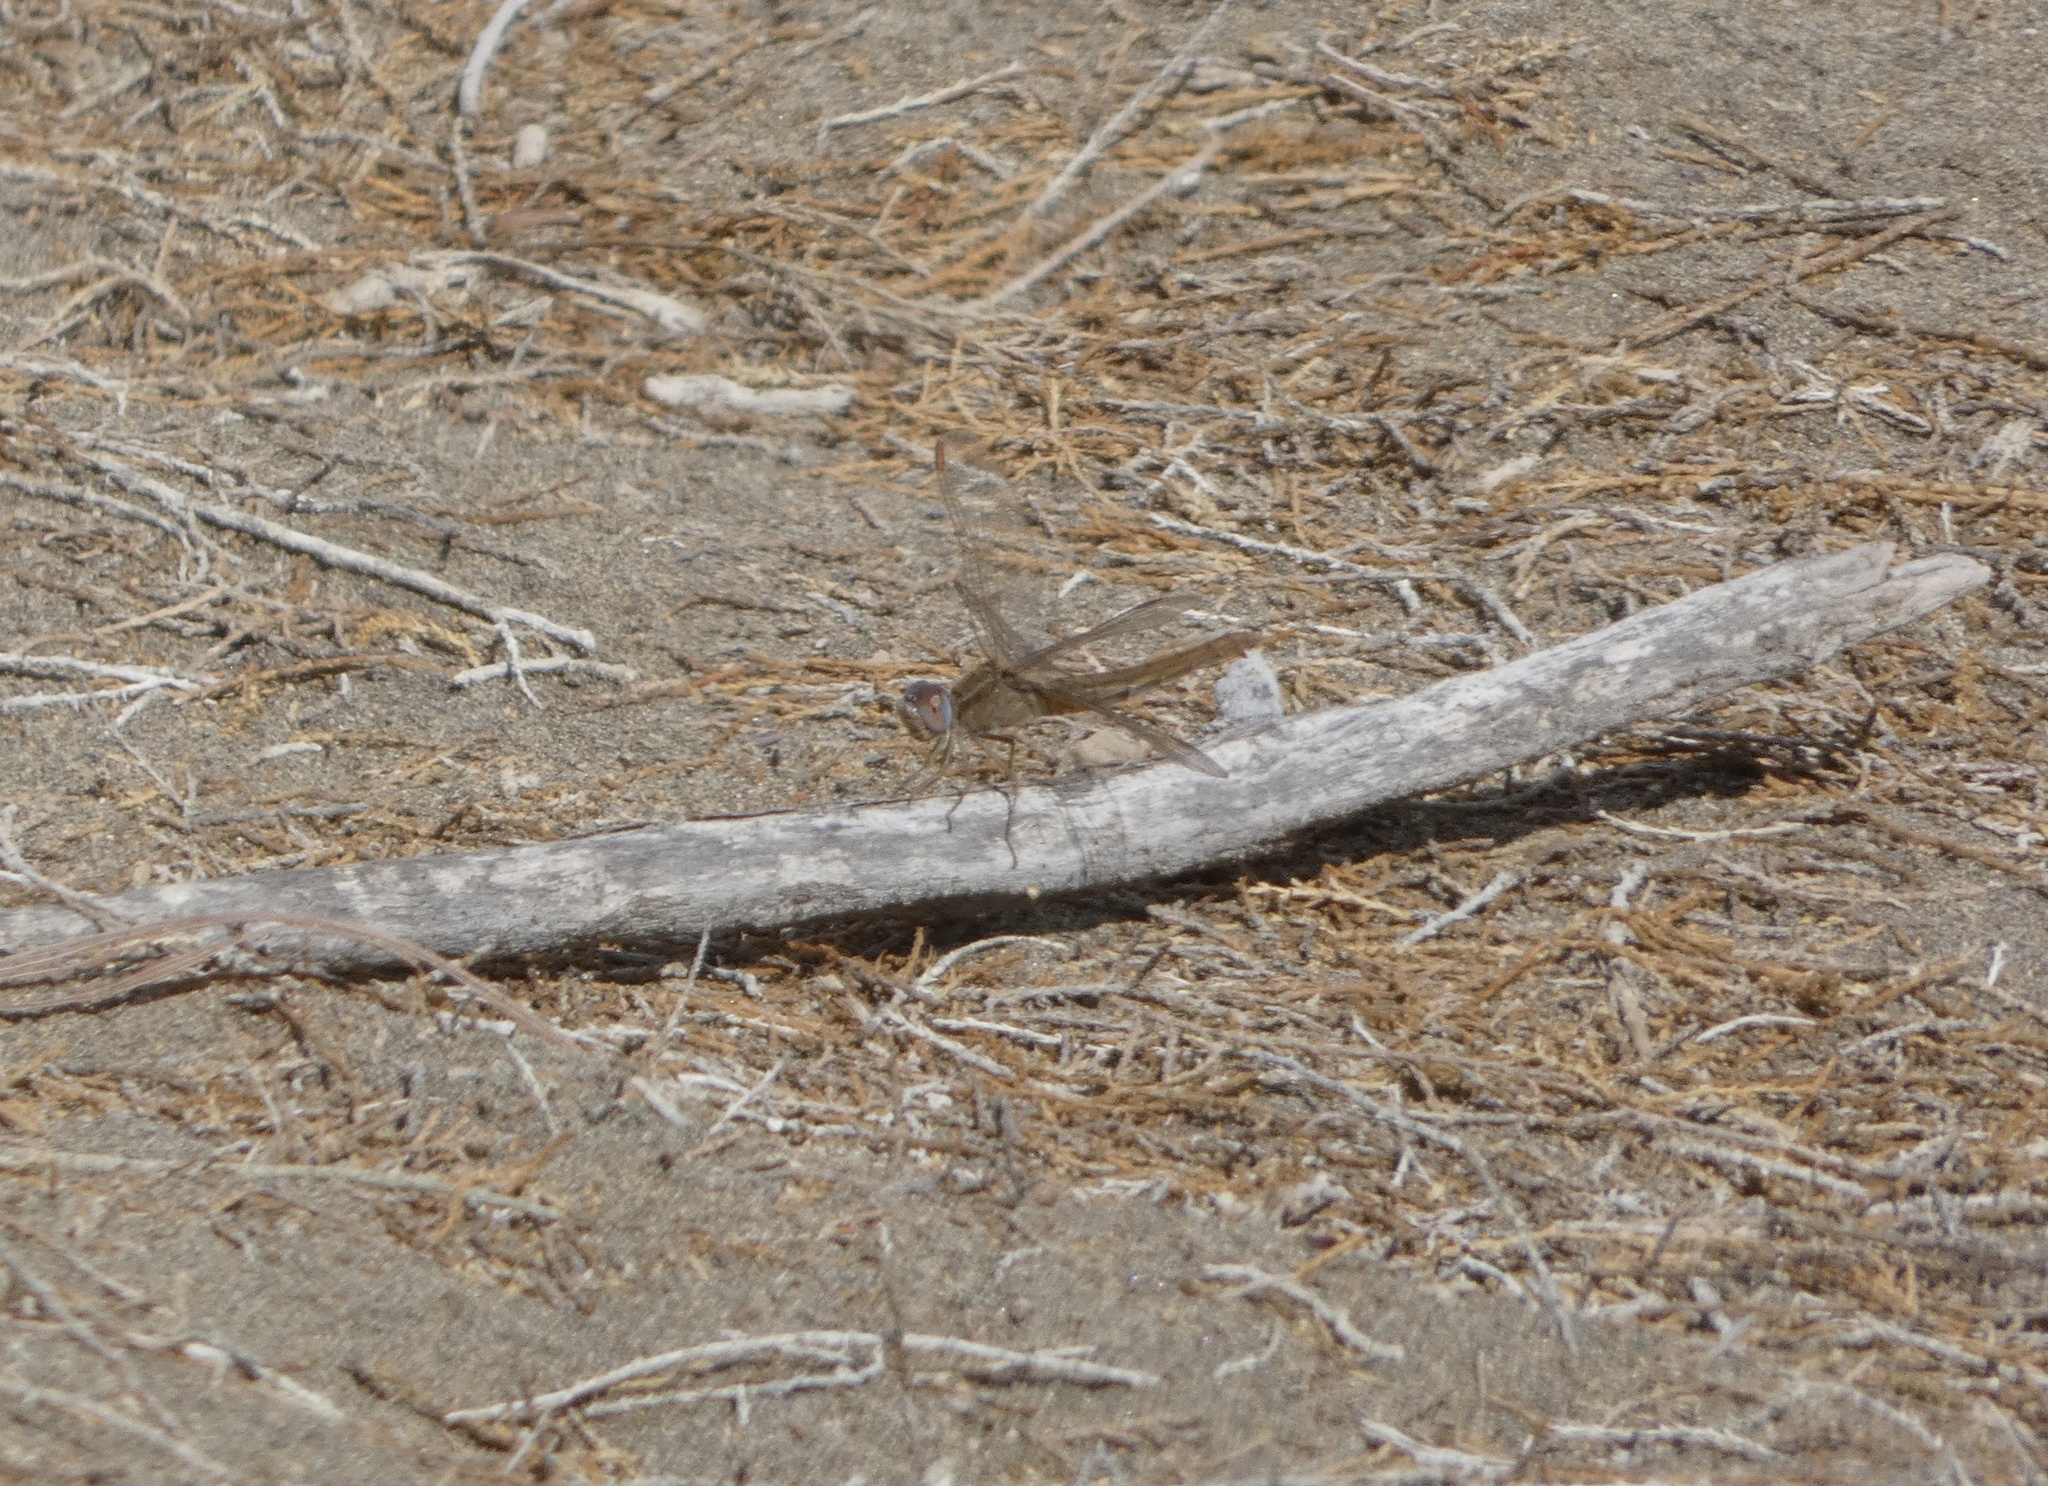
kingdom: Animalia
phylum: Arthropoda
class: Insecta
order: Odonata
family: Libellulidae
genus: Crocothemis
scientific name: Crocothemis erythraea
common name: Scarlet dragonfly
